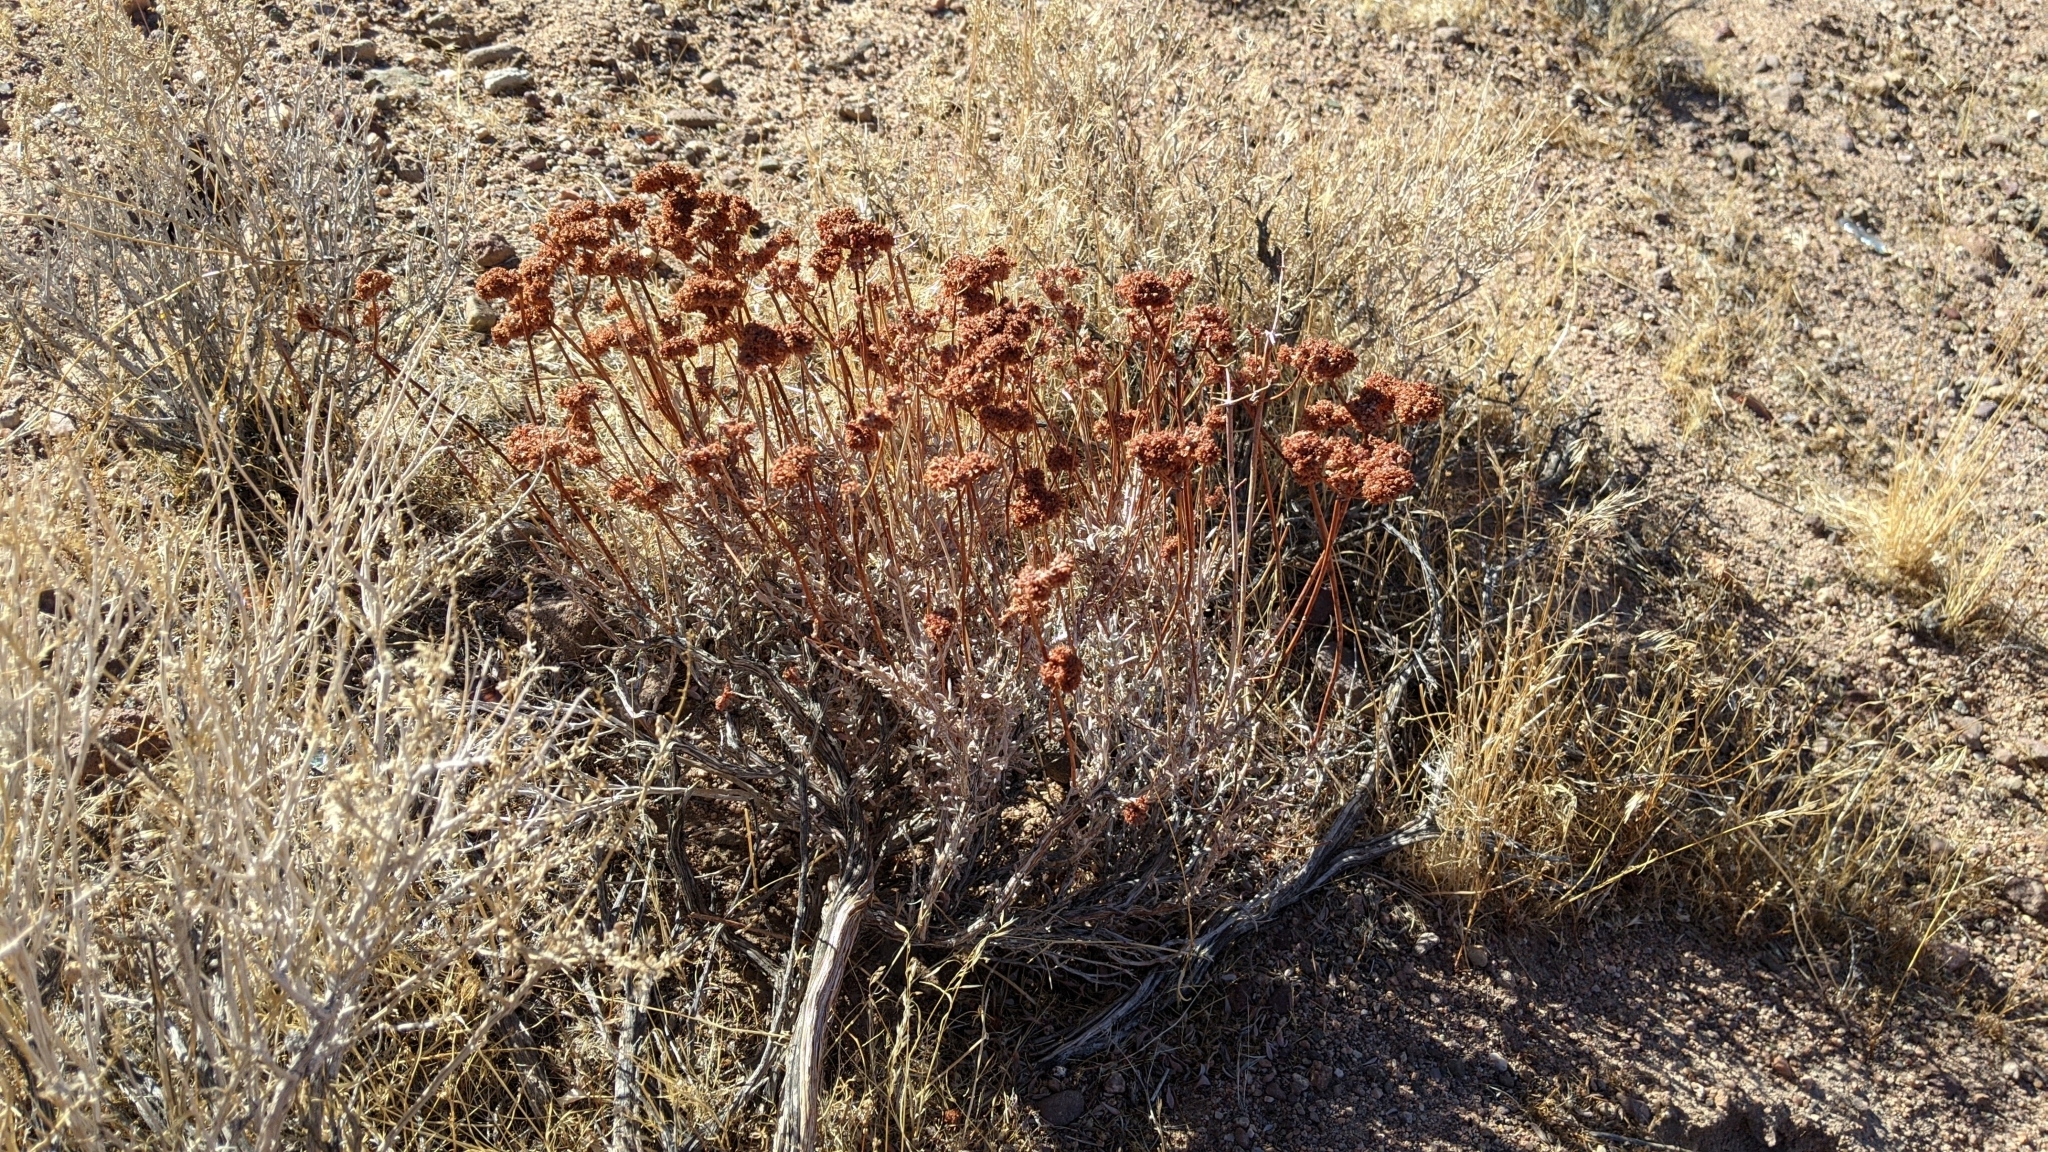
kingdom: Plantae
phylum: Tracheophyta
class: Magnoliopsida
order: Caryophyllales
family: Polygonaceae
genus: Eriogonum
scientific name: Eriogonum fasciculatum
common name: California wild buckwheat
